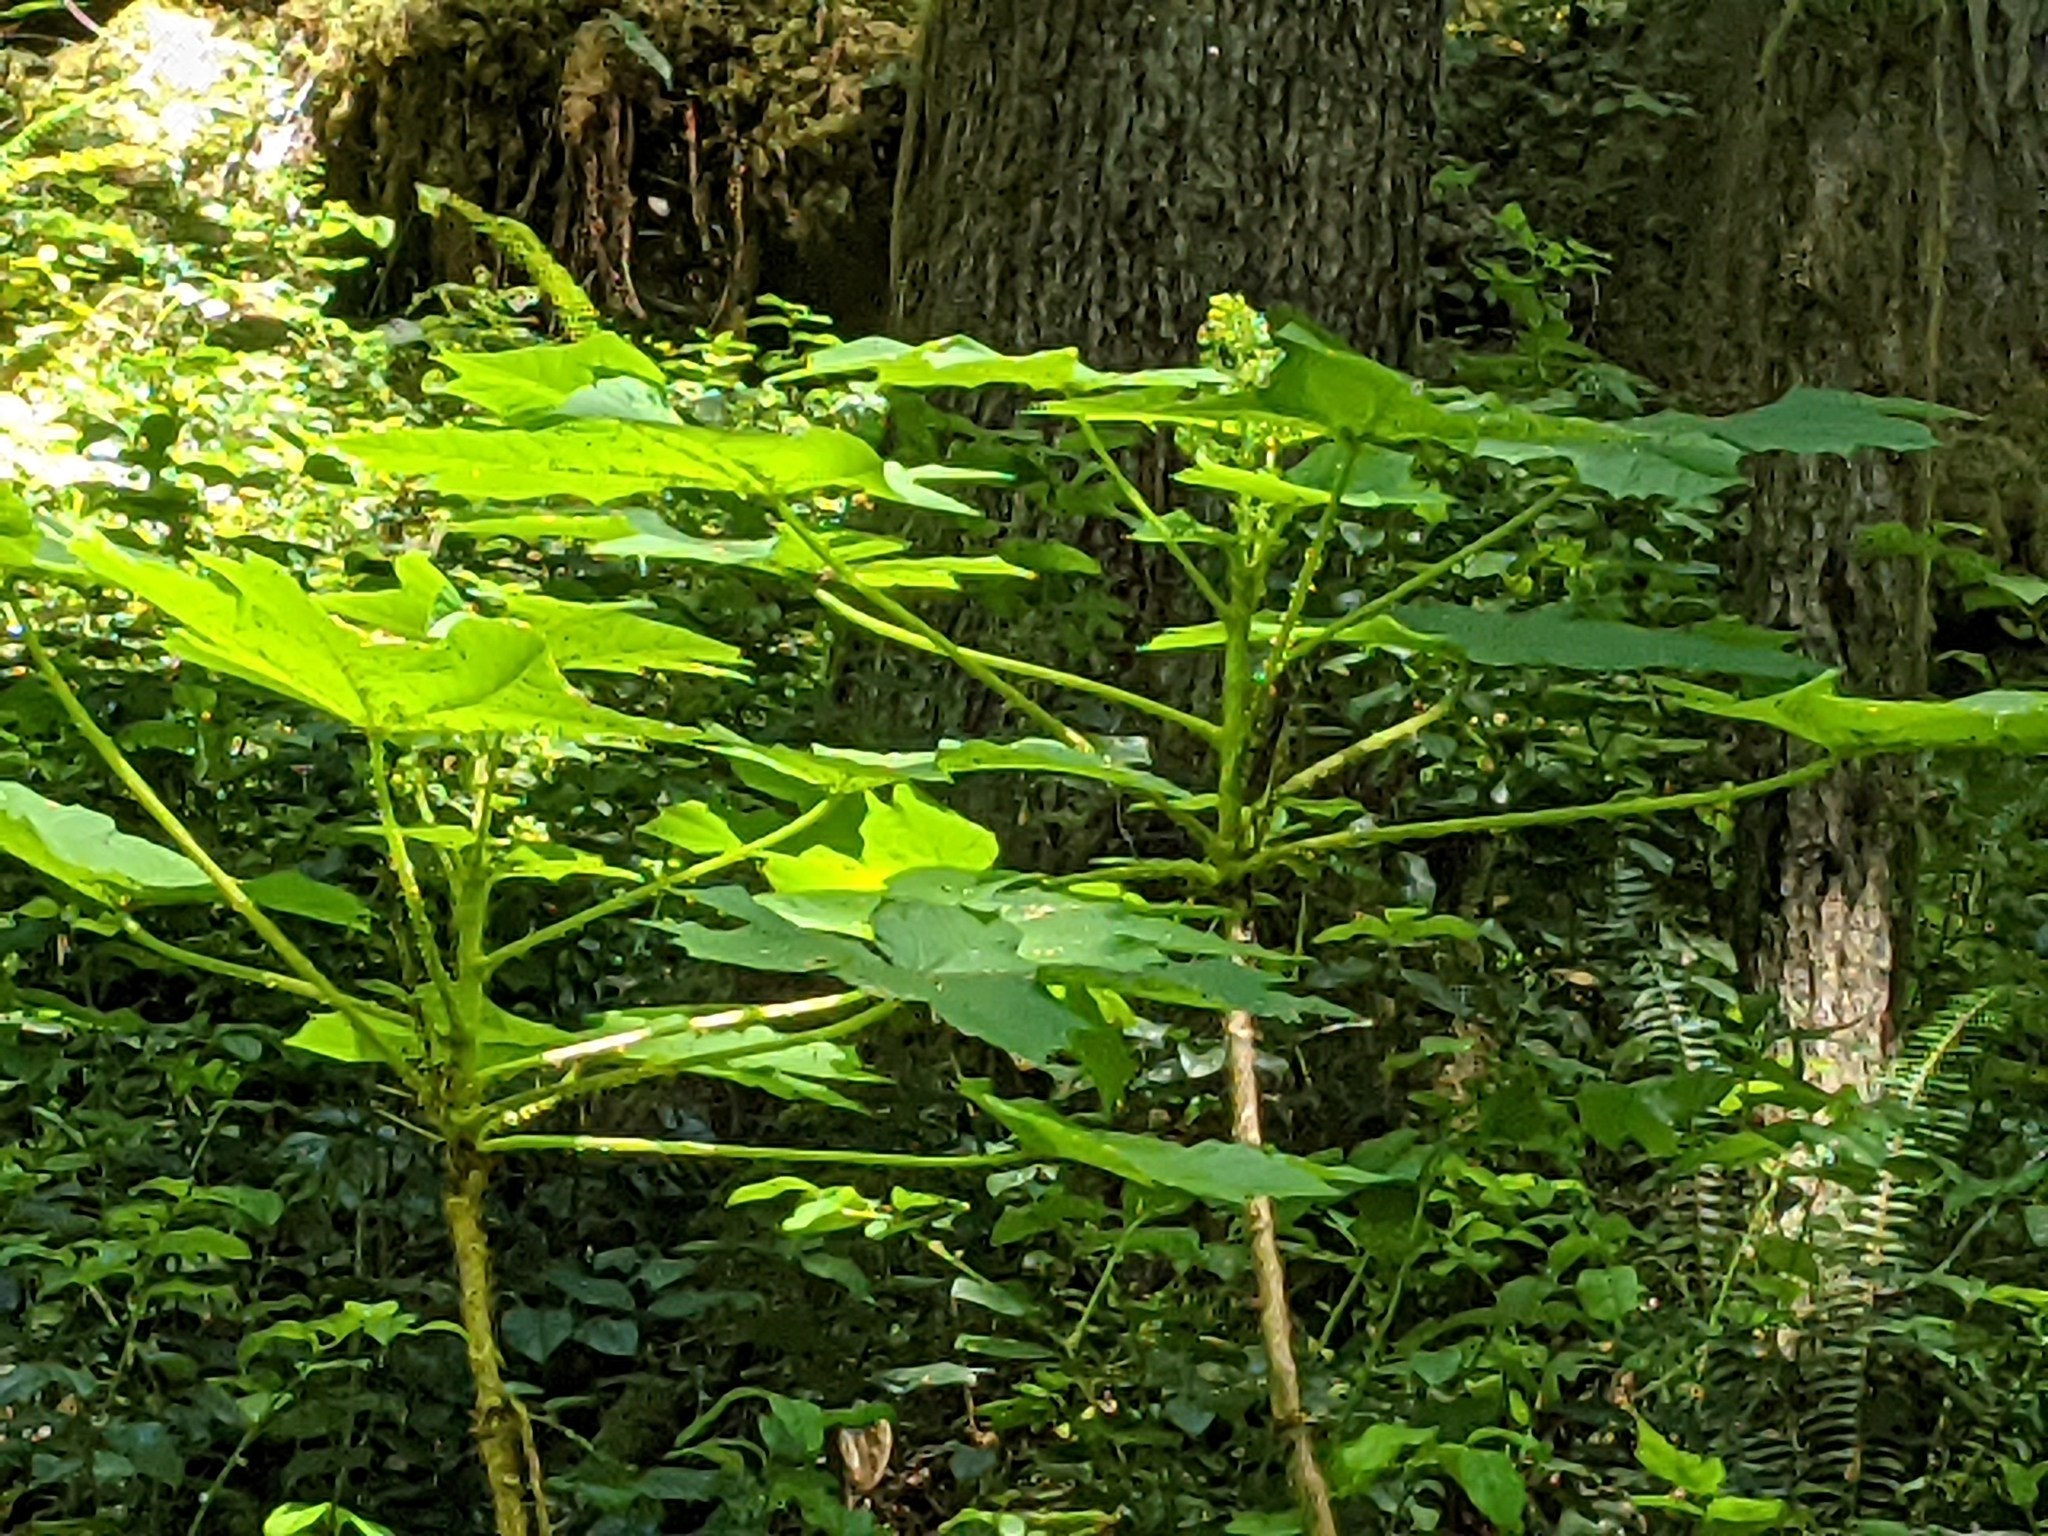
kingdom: Plantae
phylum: Tracheophyta
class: Magnoliopsida
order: Apiales
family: Araliaceae
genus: Oplopanax
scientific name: Oplopanax horridus
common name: Devil's walking-stick
